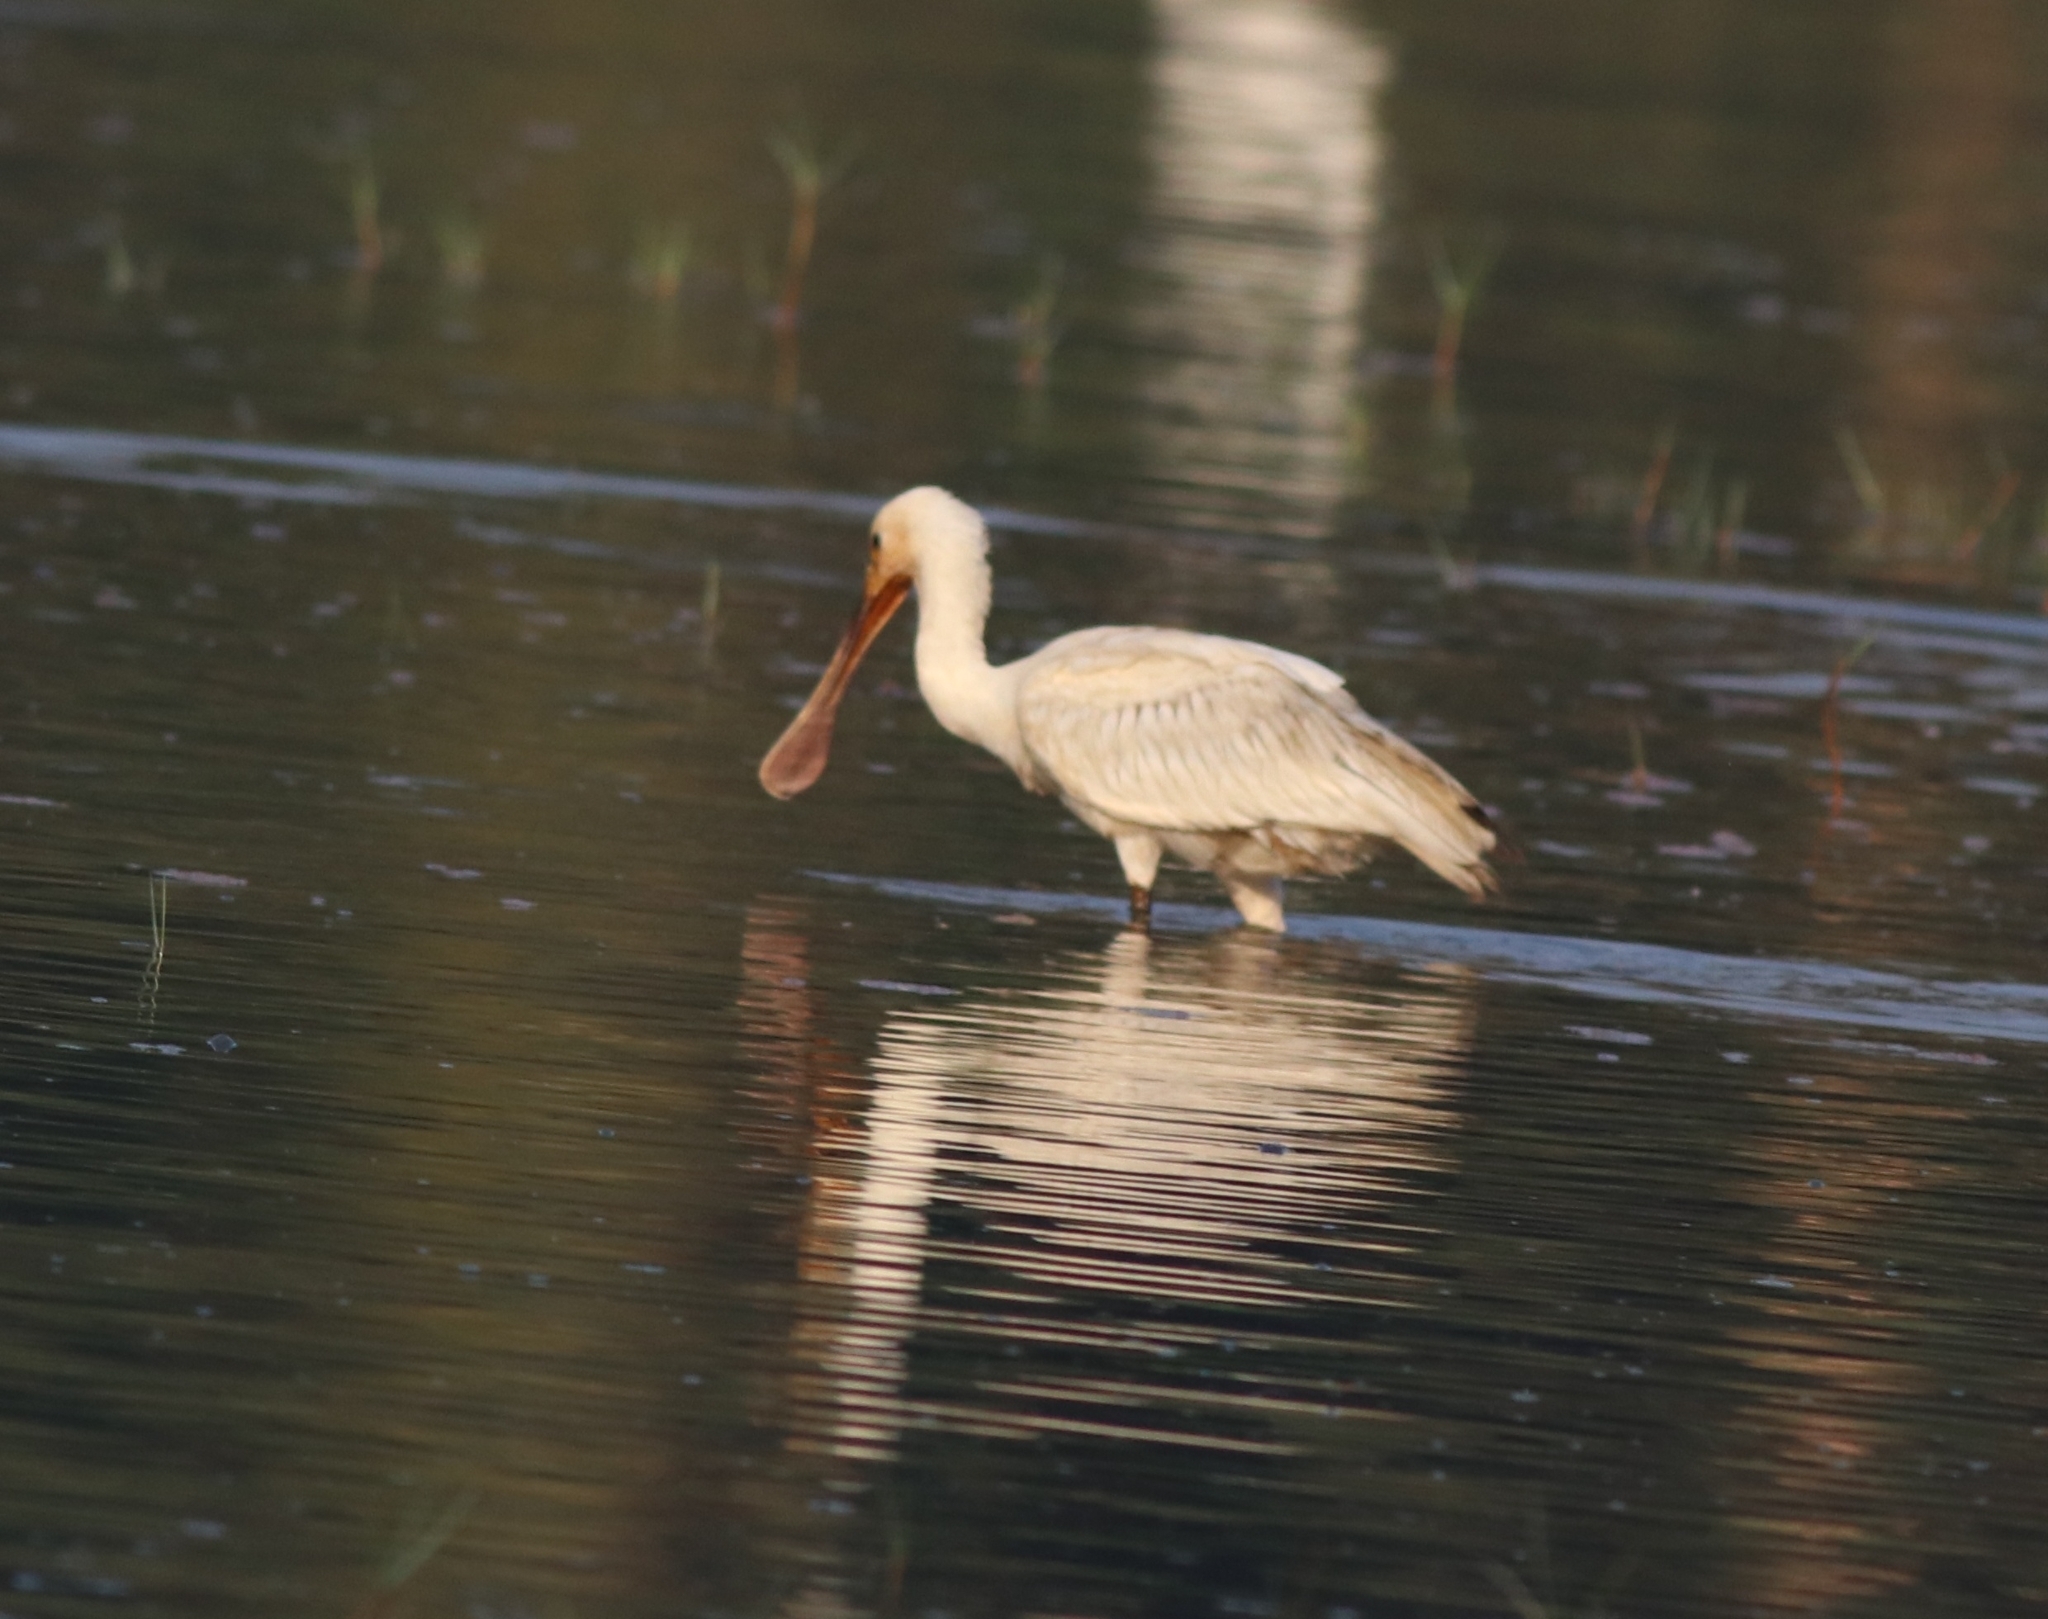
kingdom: Animalia
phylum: Chordata
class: Aves
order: Pelecaniformes
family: Threskiornithidae
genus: Platalea
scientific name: Platalea leucorodia
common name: Eurasian spoonbill
